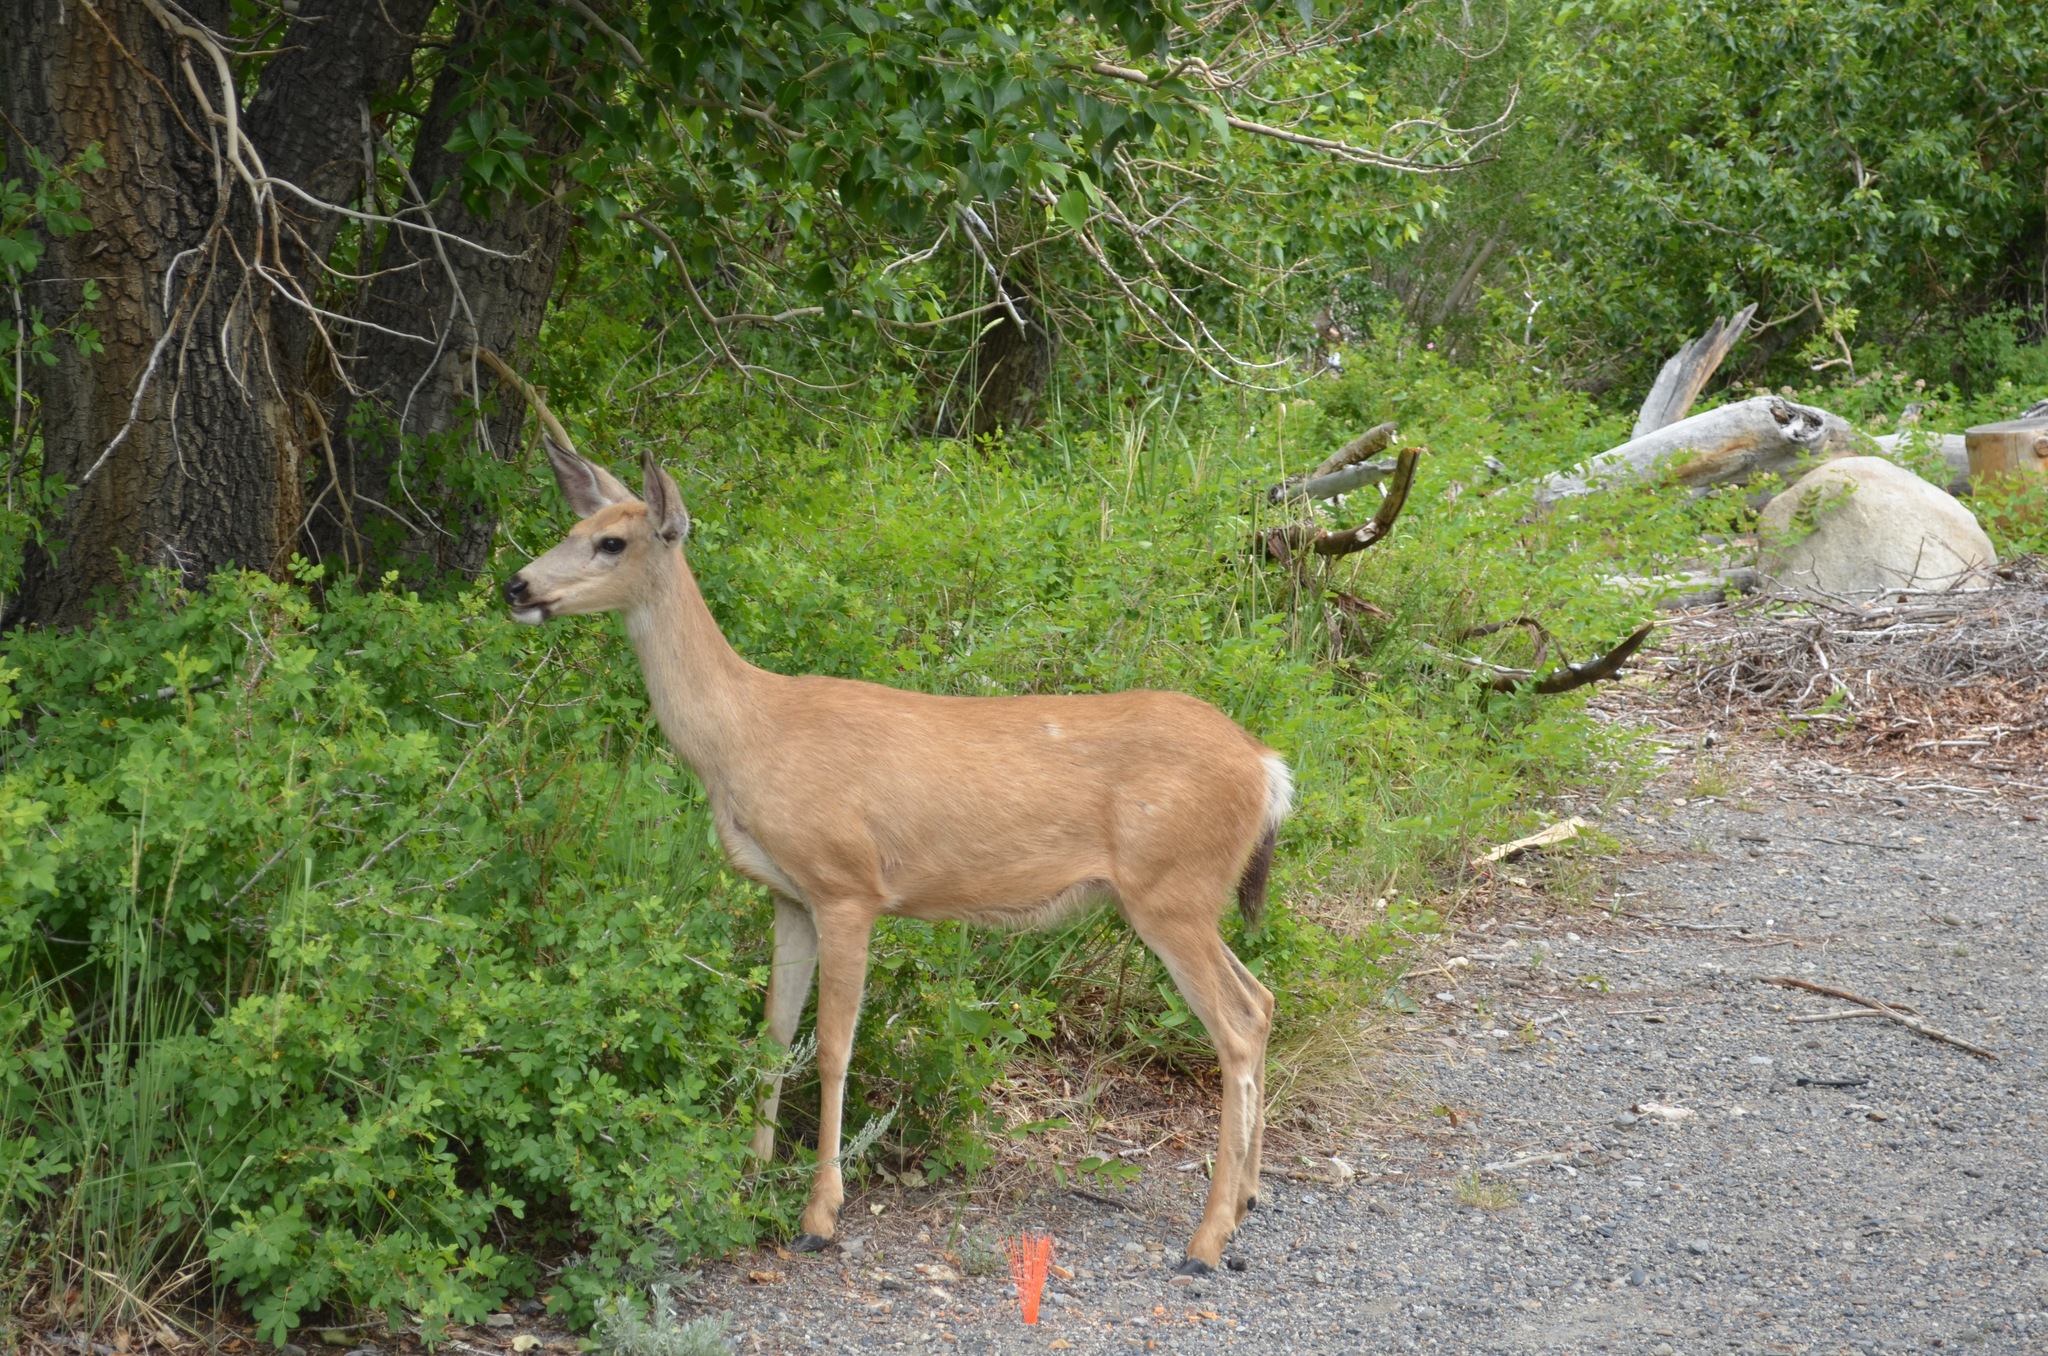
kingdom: Animalia
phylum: Chordata
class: Mammalia
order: Artiodactyla
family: Cervidae
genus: Odocoileus
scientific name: Odocoileus hemionus
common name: Mule deer
